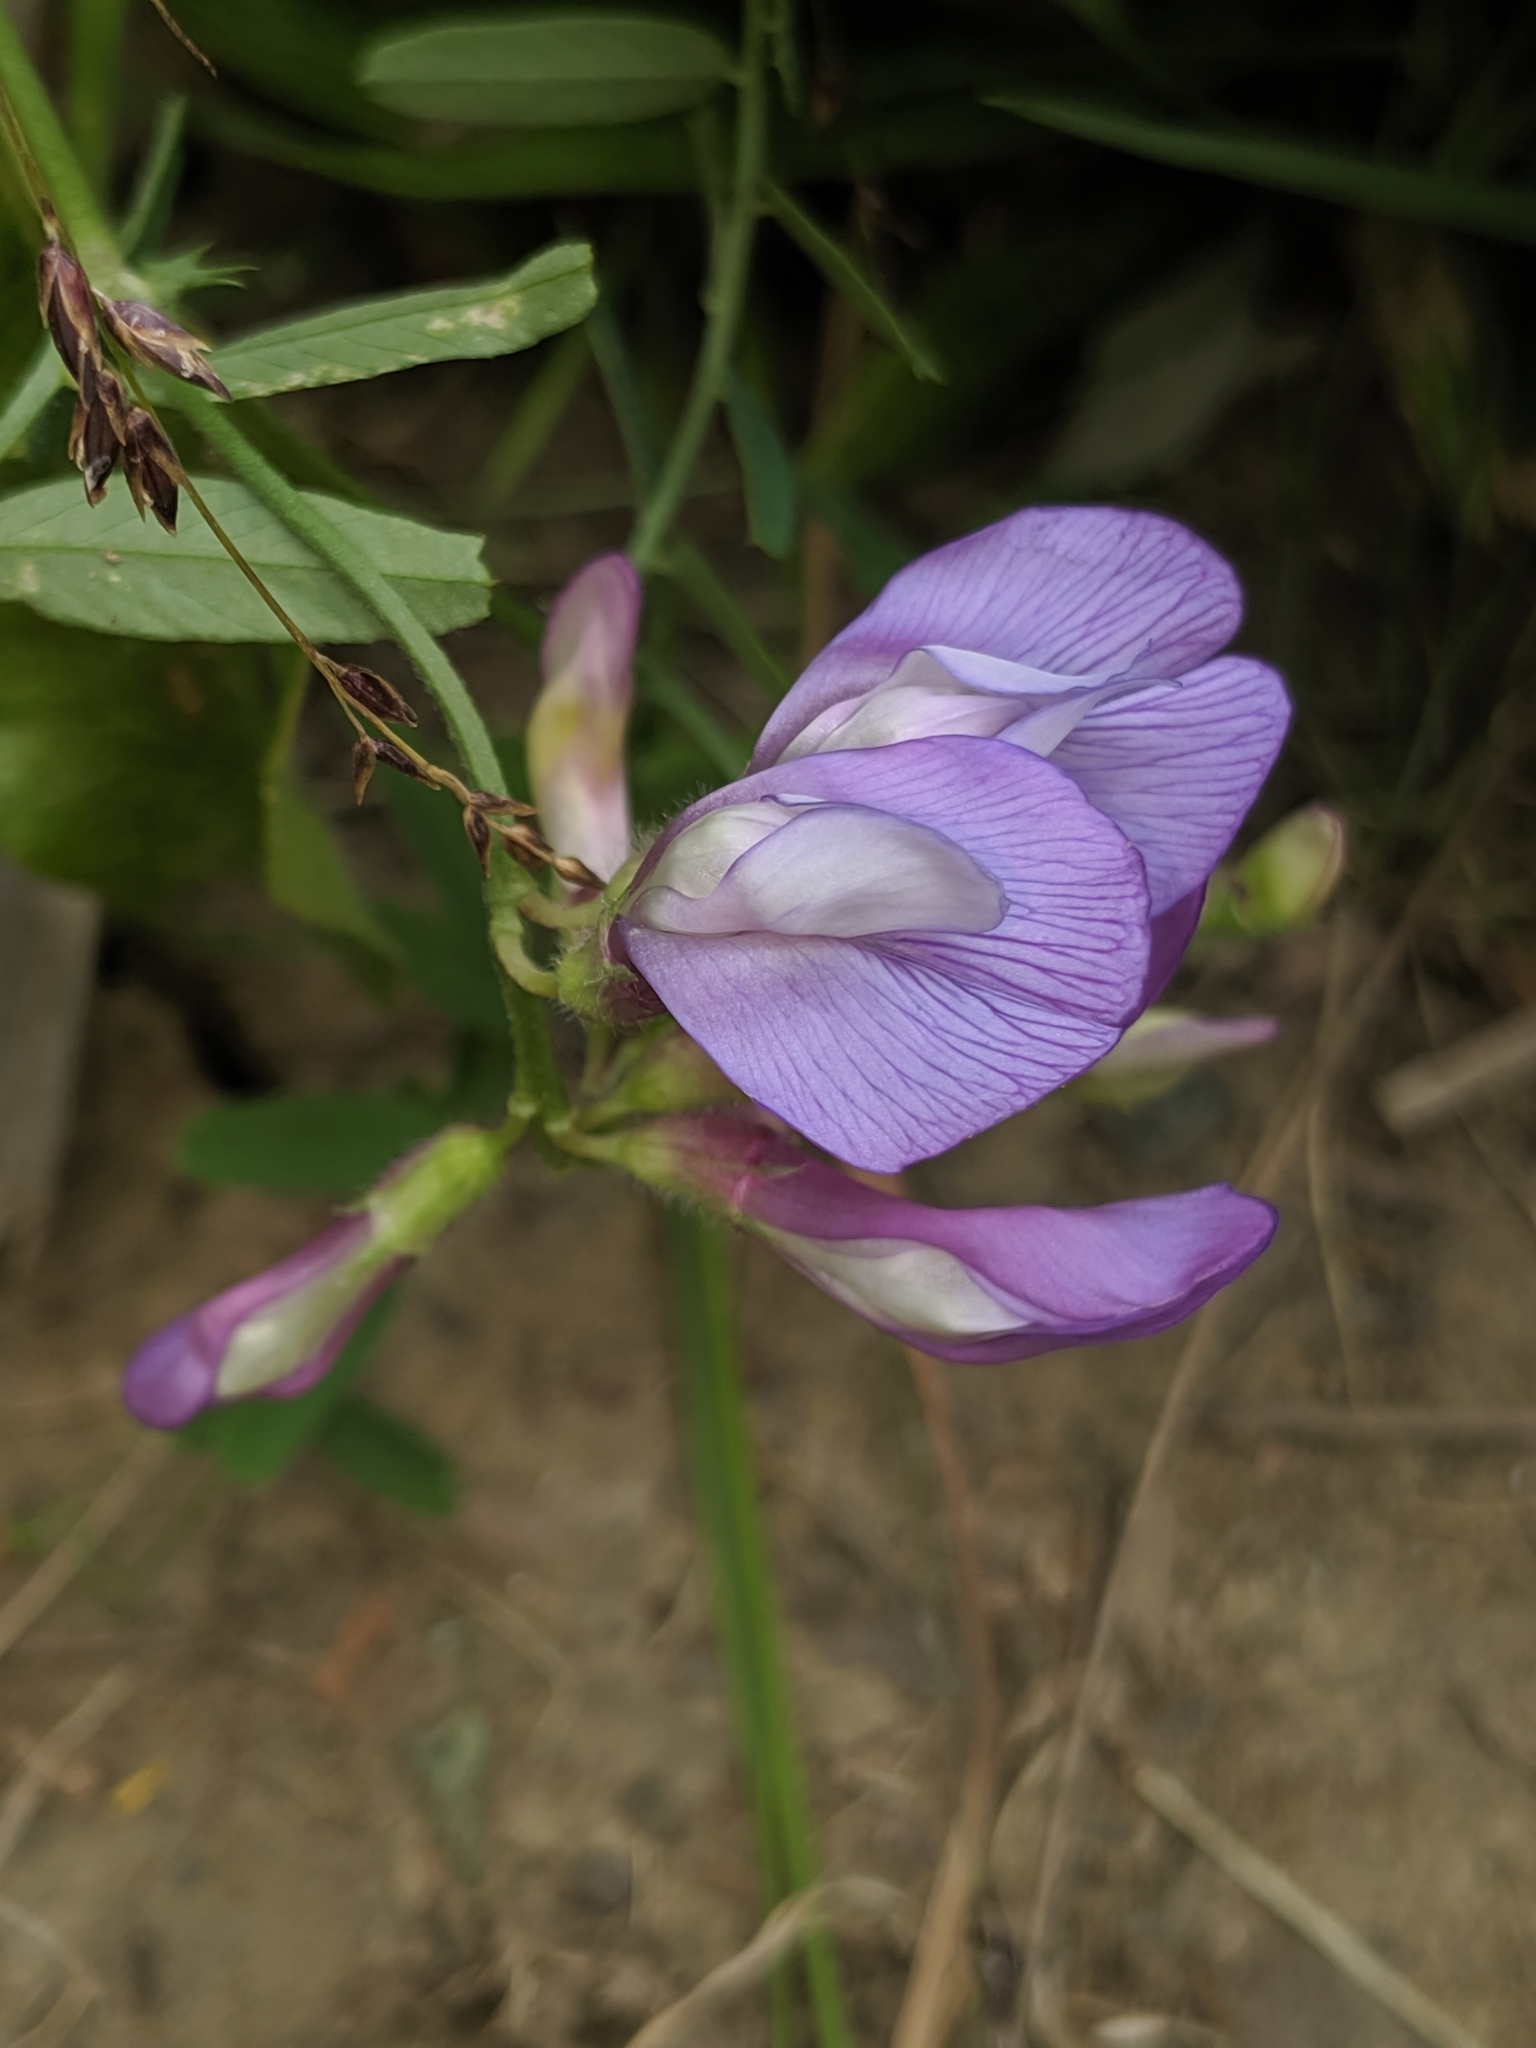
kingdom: Plantae
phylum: Tracheophyta
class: Magnoliopsida
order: Fabales
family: Fabaceae
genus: Vicia
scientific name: Vicia americana
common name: American vetch
